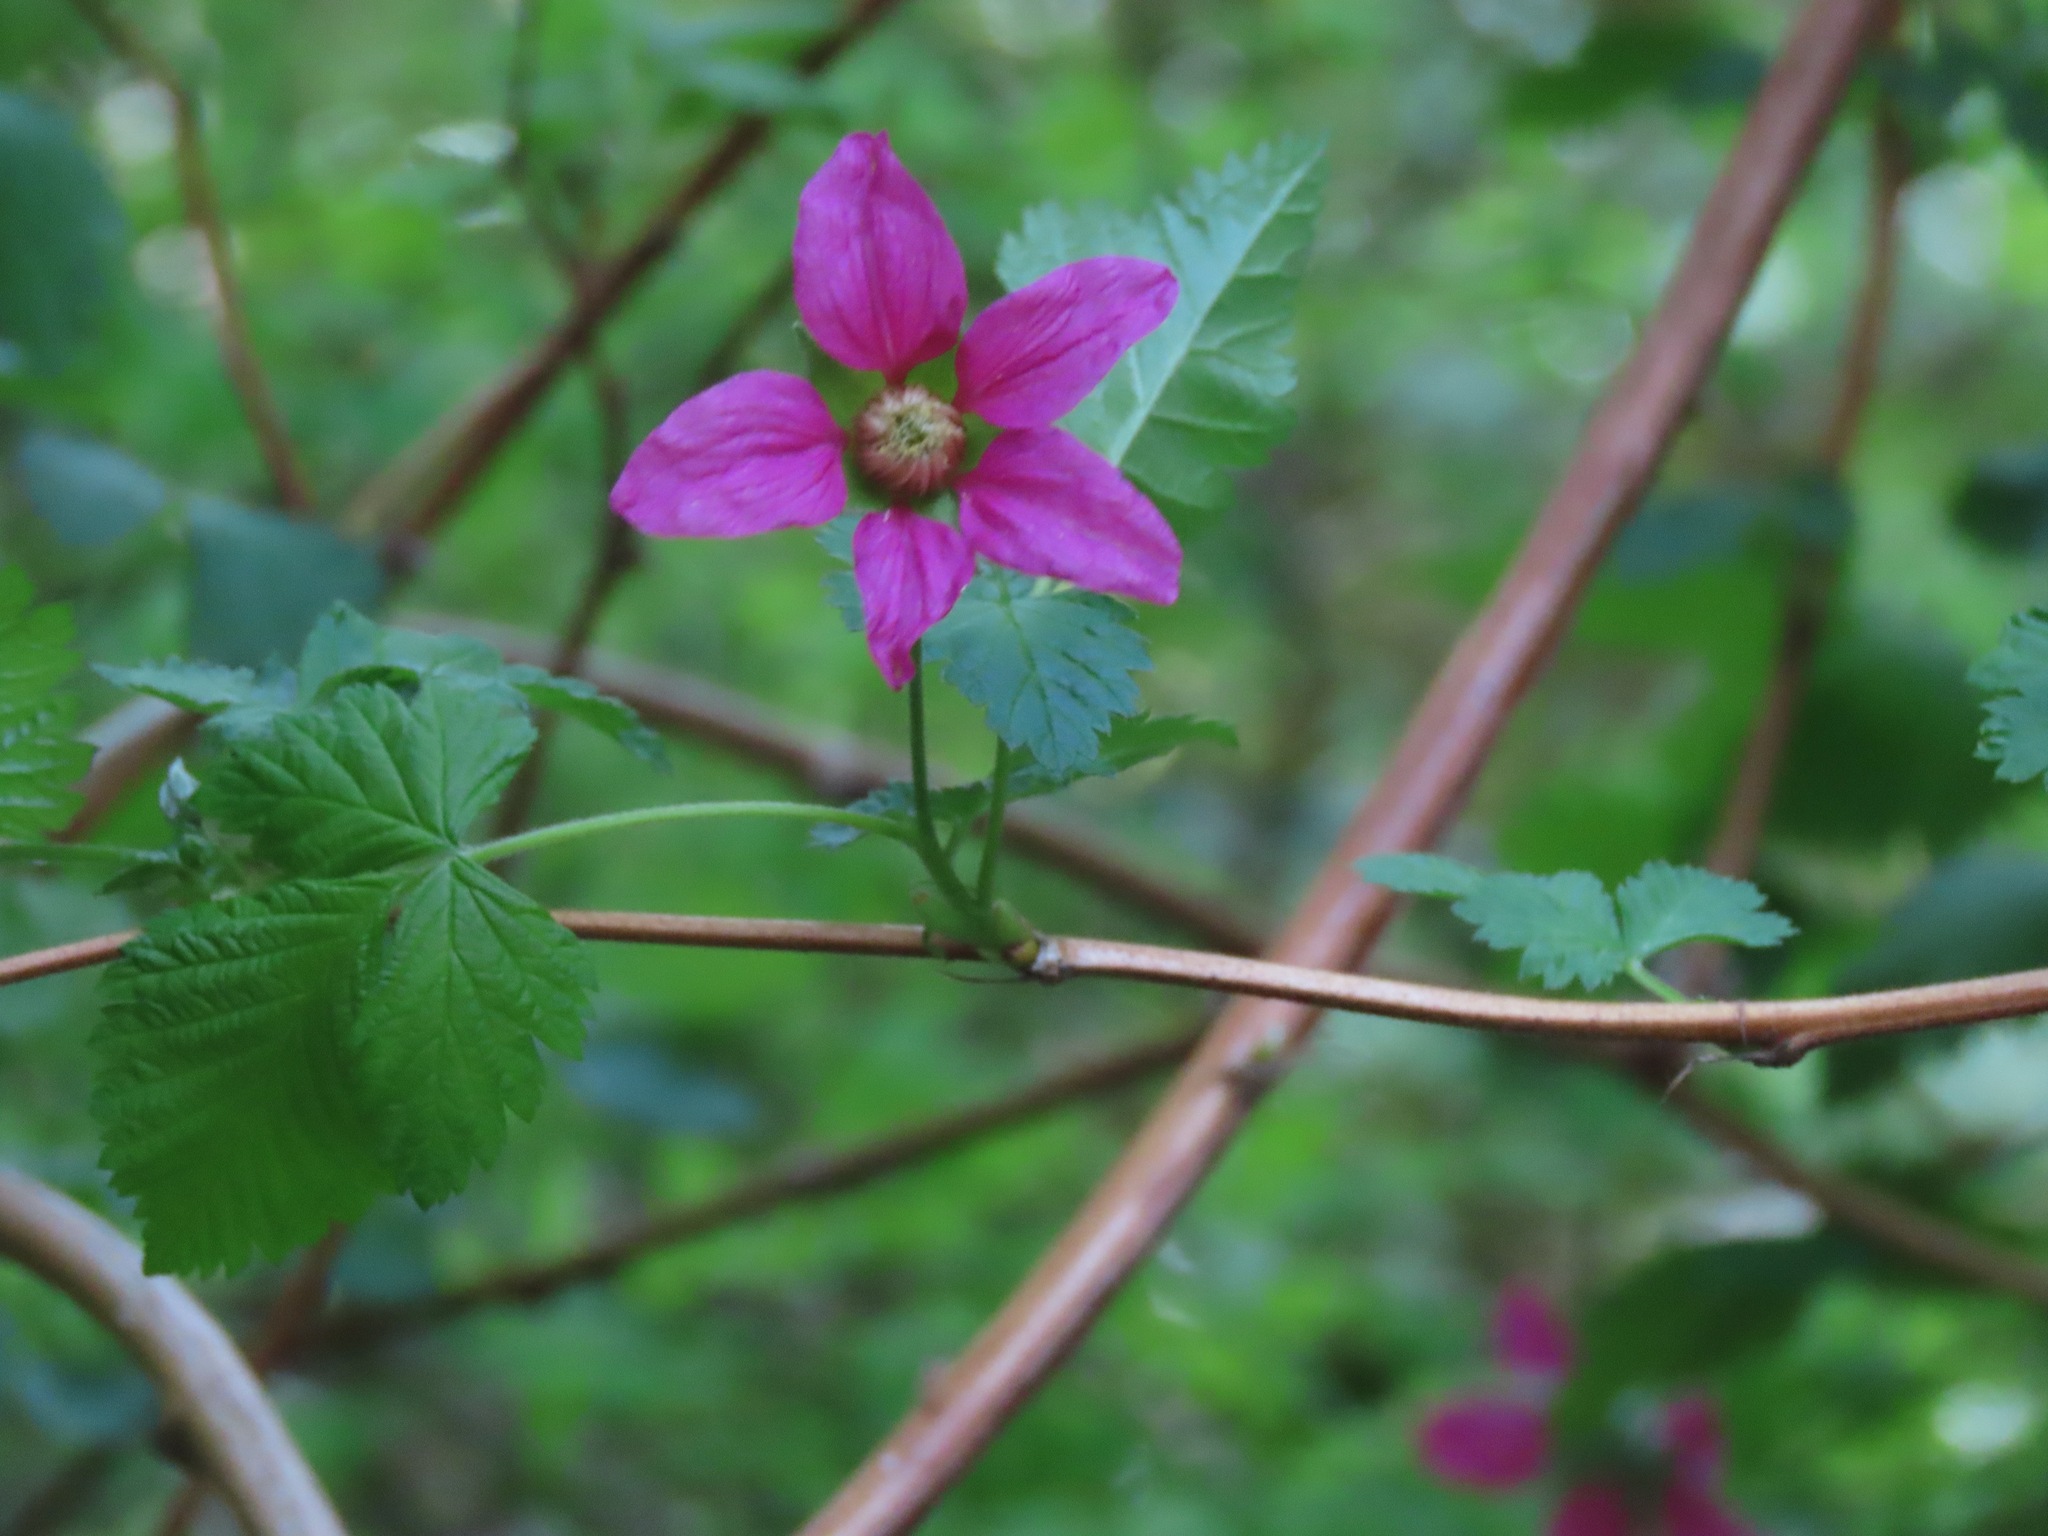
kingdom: Plantae
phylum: Tracheophyta
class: Magnoliopsida
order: Rosales
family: Rosaceae
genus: Rubus
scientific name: Rubus spectabilis
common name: Salmonberry
